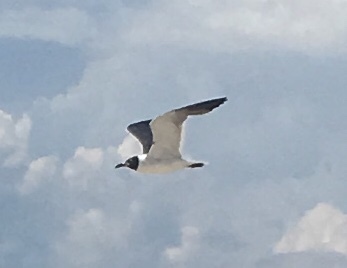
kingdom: Animalia
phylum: Chordata
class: Aves
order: Charadriiformes
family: Laridae
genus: Leucophaeus
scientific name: Leucophaeus atricilla
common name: Laughing gull
